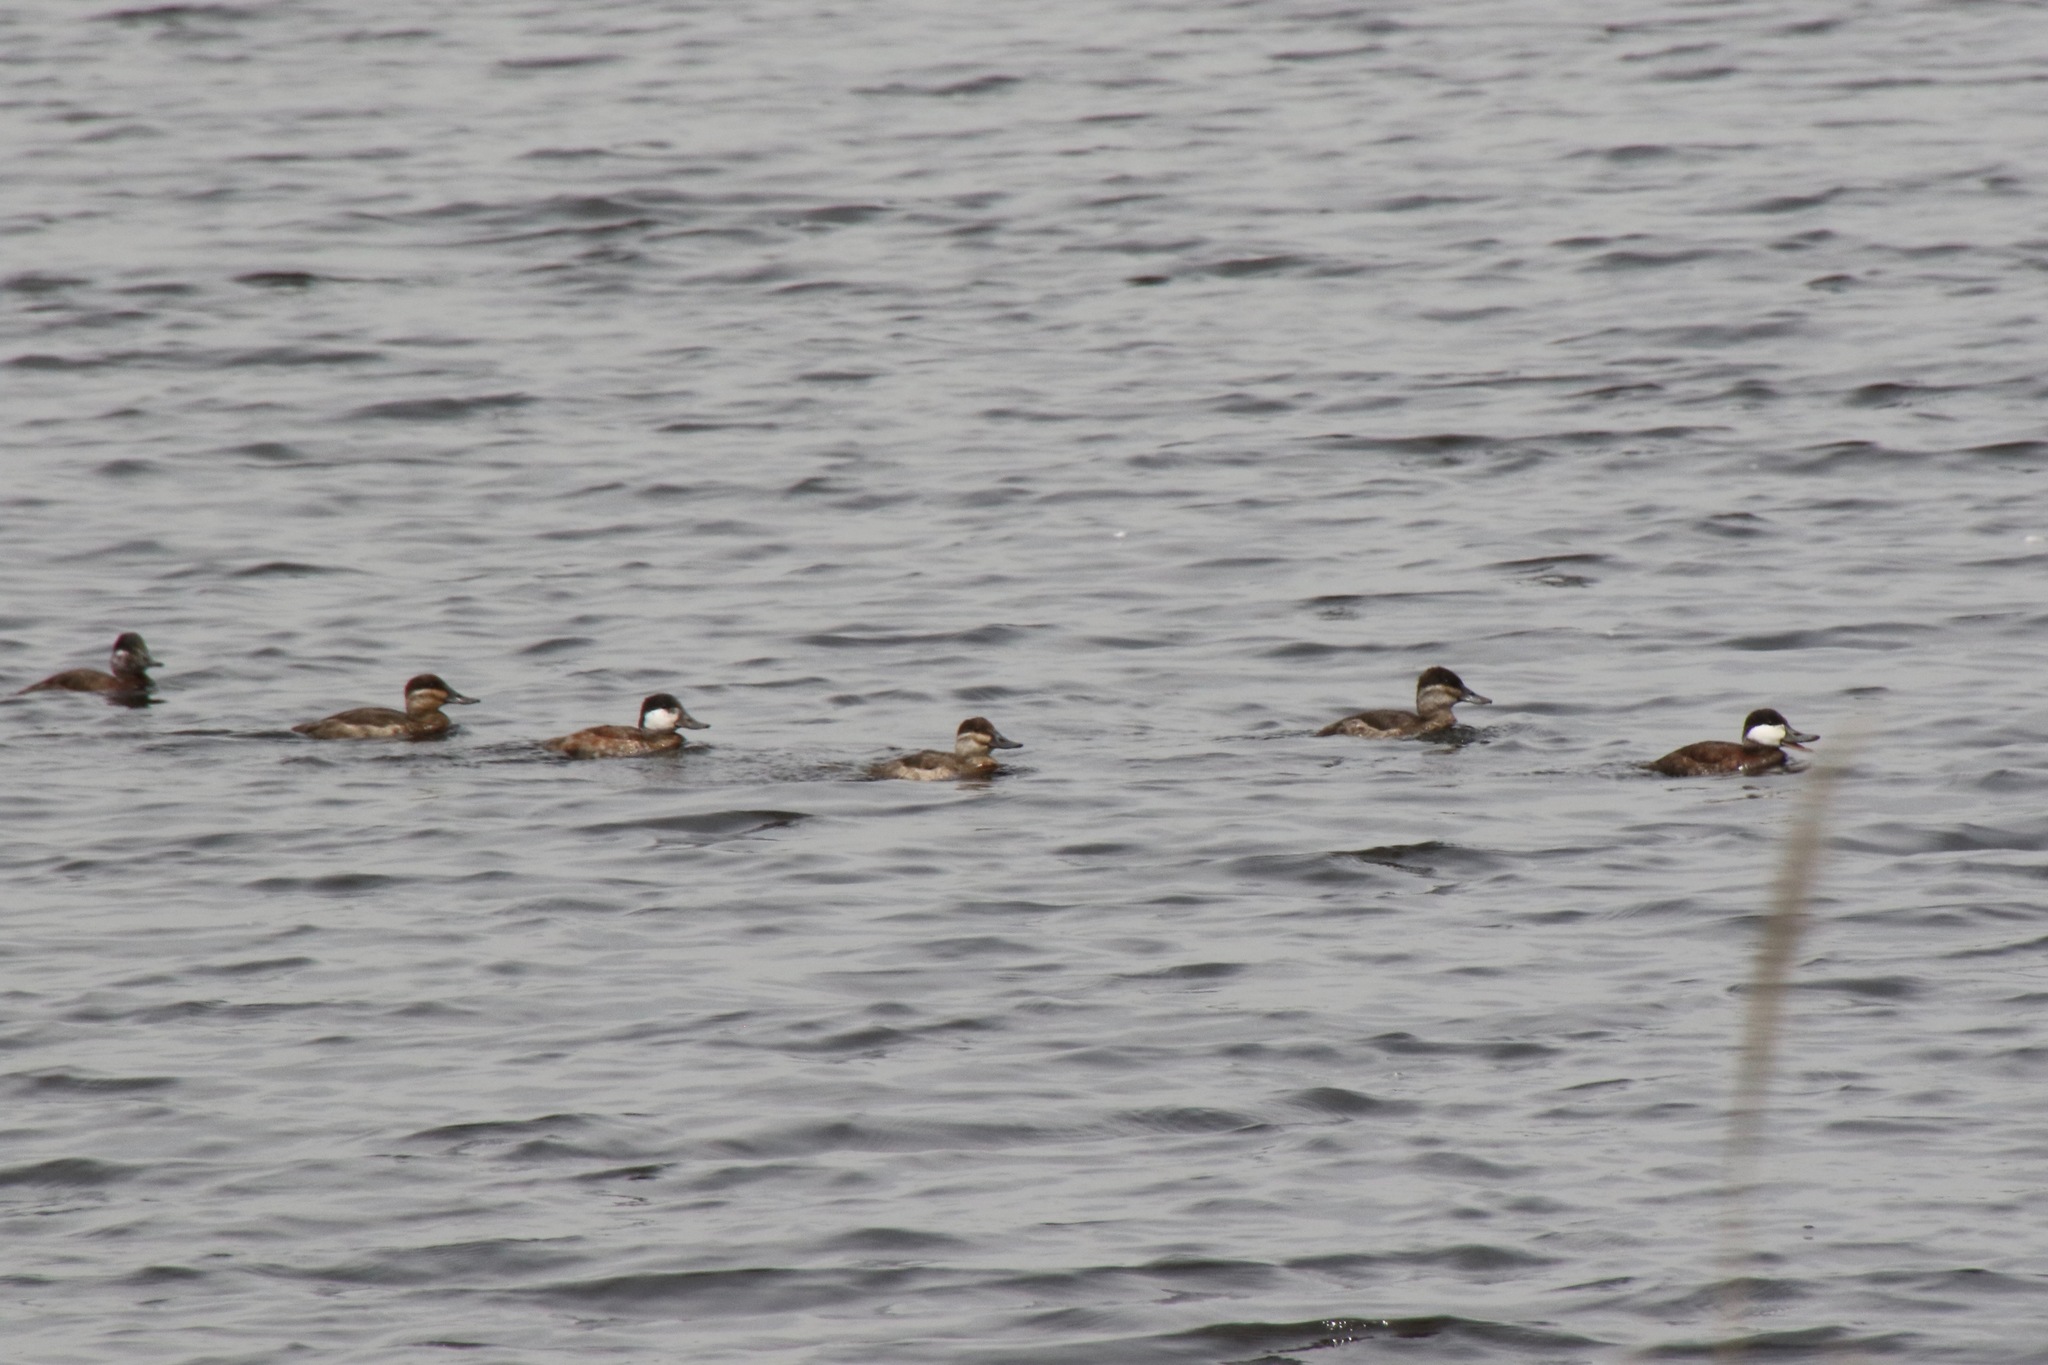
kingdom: Animalia
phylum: Chordata
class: Aves
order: Anseriformes
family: Anatidae
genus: Oxyura
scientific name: Oxyura jamaicensis
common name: Ruddy duck
